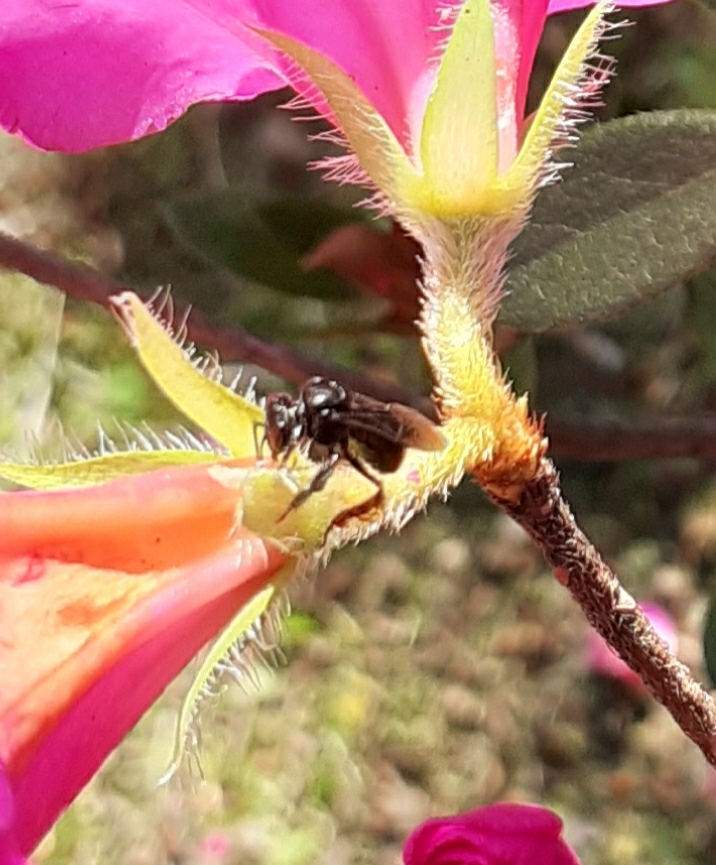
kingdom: Animalia
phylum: Arthropoda
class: Insecta
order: Hymenoptera
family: Apidae
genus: Trigona
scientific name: Trigona spinipes
